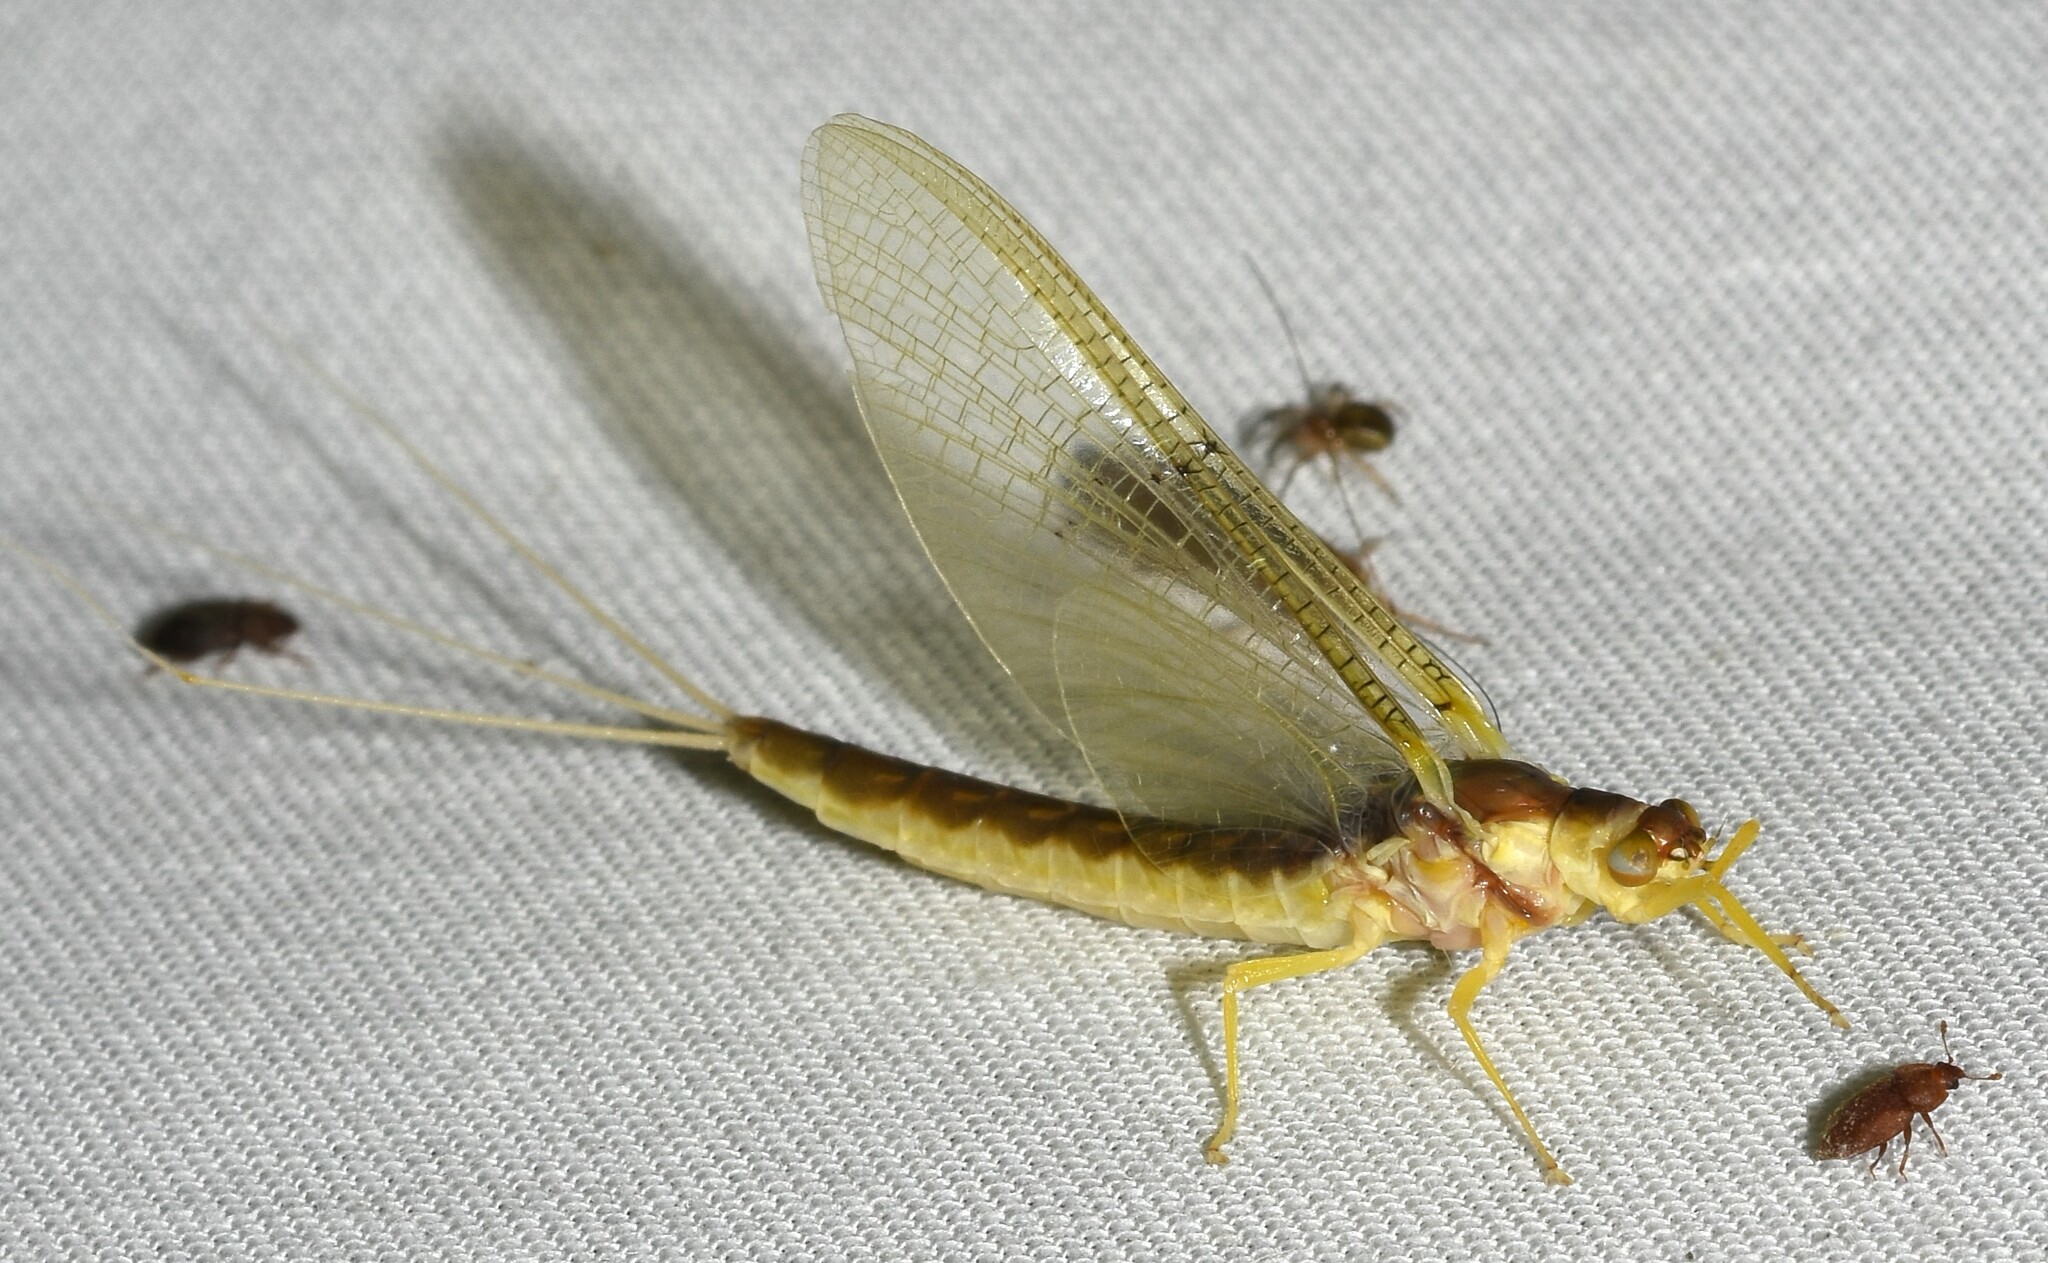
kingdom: Animalia
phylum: Arthropoda
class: Insecta
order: Ephemeroptera
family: Ephemeridae
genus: Pentagenia
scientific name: Pentagenia vittigera
